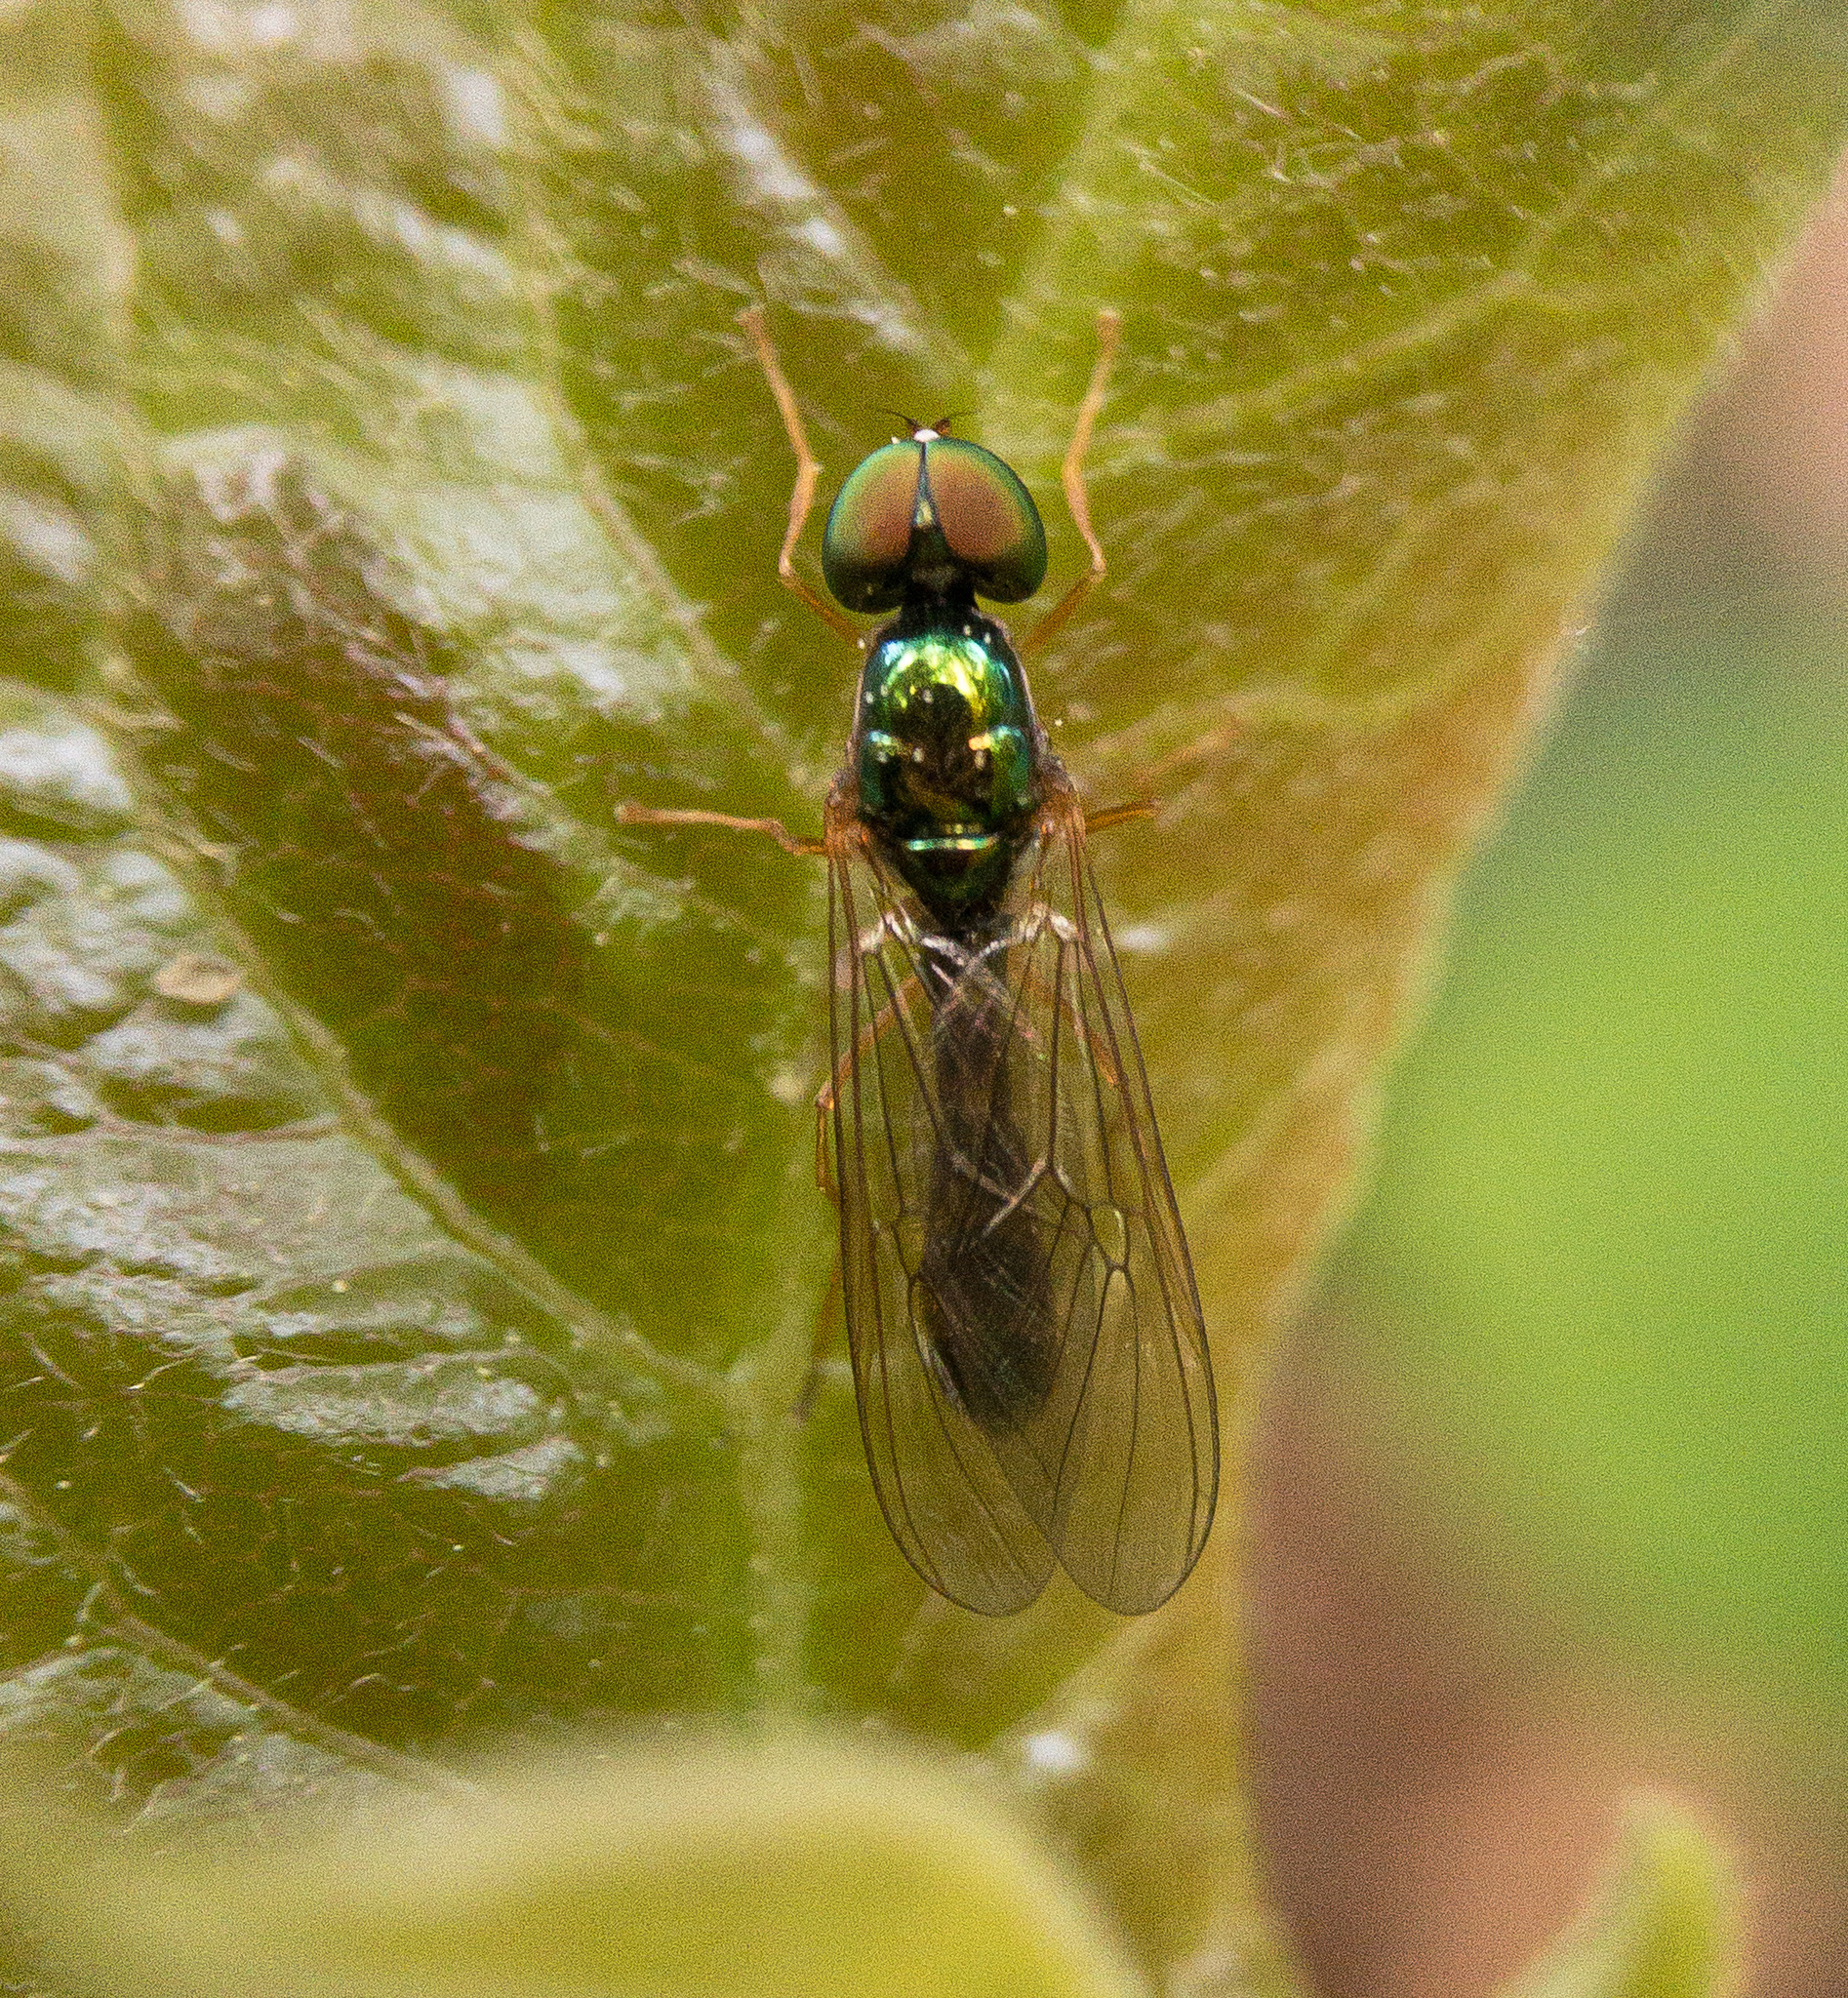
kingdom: Animalia
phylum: Arthropoda
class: Insecta
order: Diptera
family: Stratiomyidae
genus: Sargus
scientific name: Sargus fasciatus
